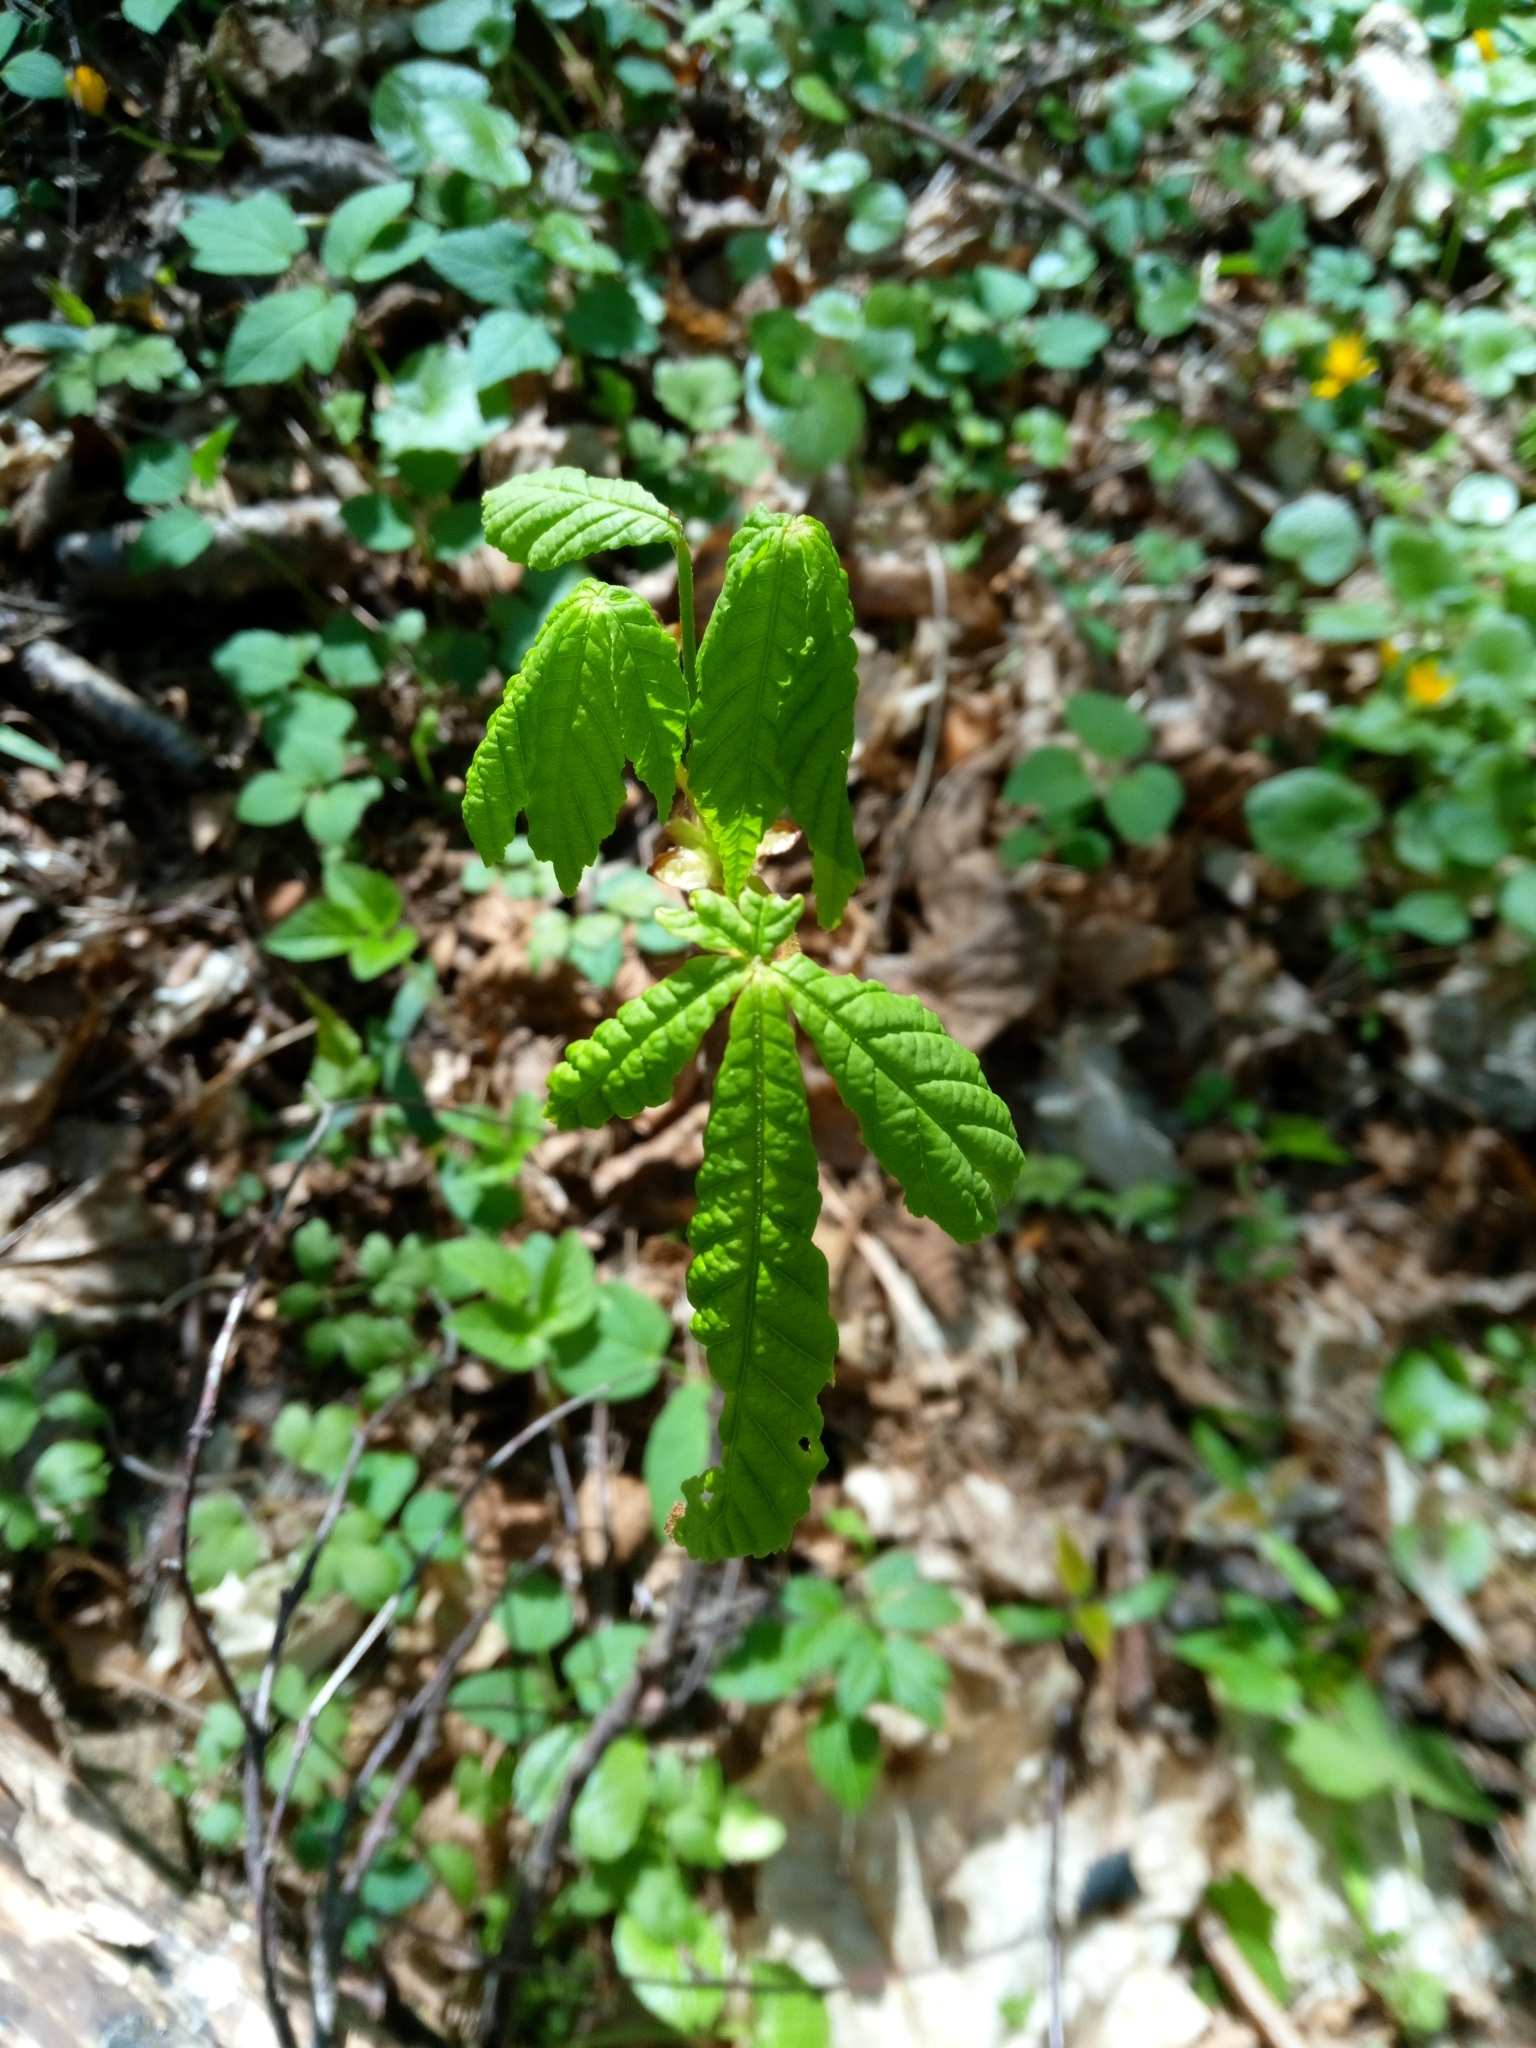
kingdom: Plantae
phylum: Tracheophyta
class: Magnoliopsida
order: Sapindales
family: Sapindaceae
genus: Aesculus
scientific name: Aesculus hippocastanum
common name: Horse-chestnut
